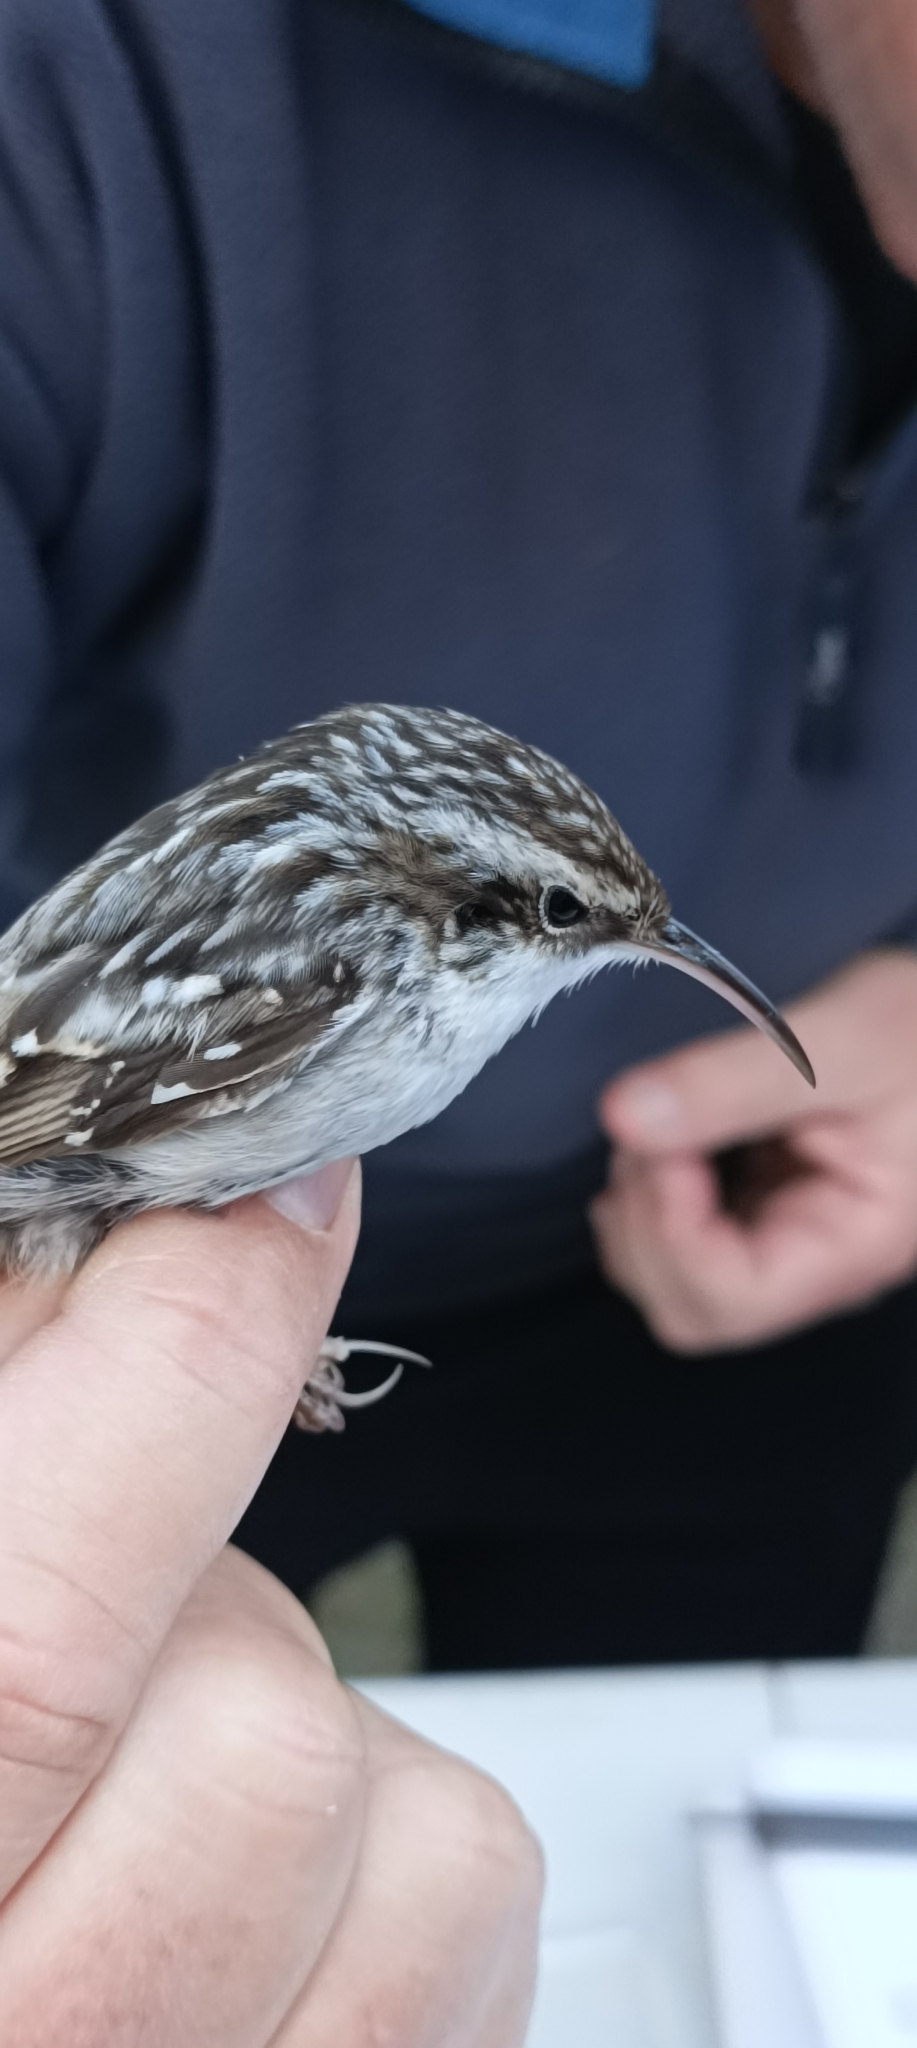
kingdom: Animalia
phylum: Chordata
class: Aves
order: Passeriformes
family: Certhiidae
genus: Certhia
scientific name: Certhia brachydactyla
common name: Short-toed treecreeper
